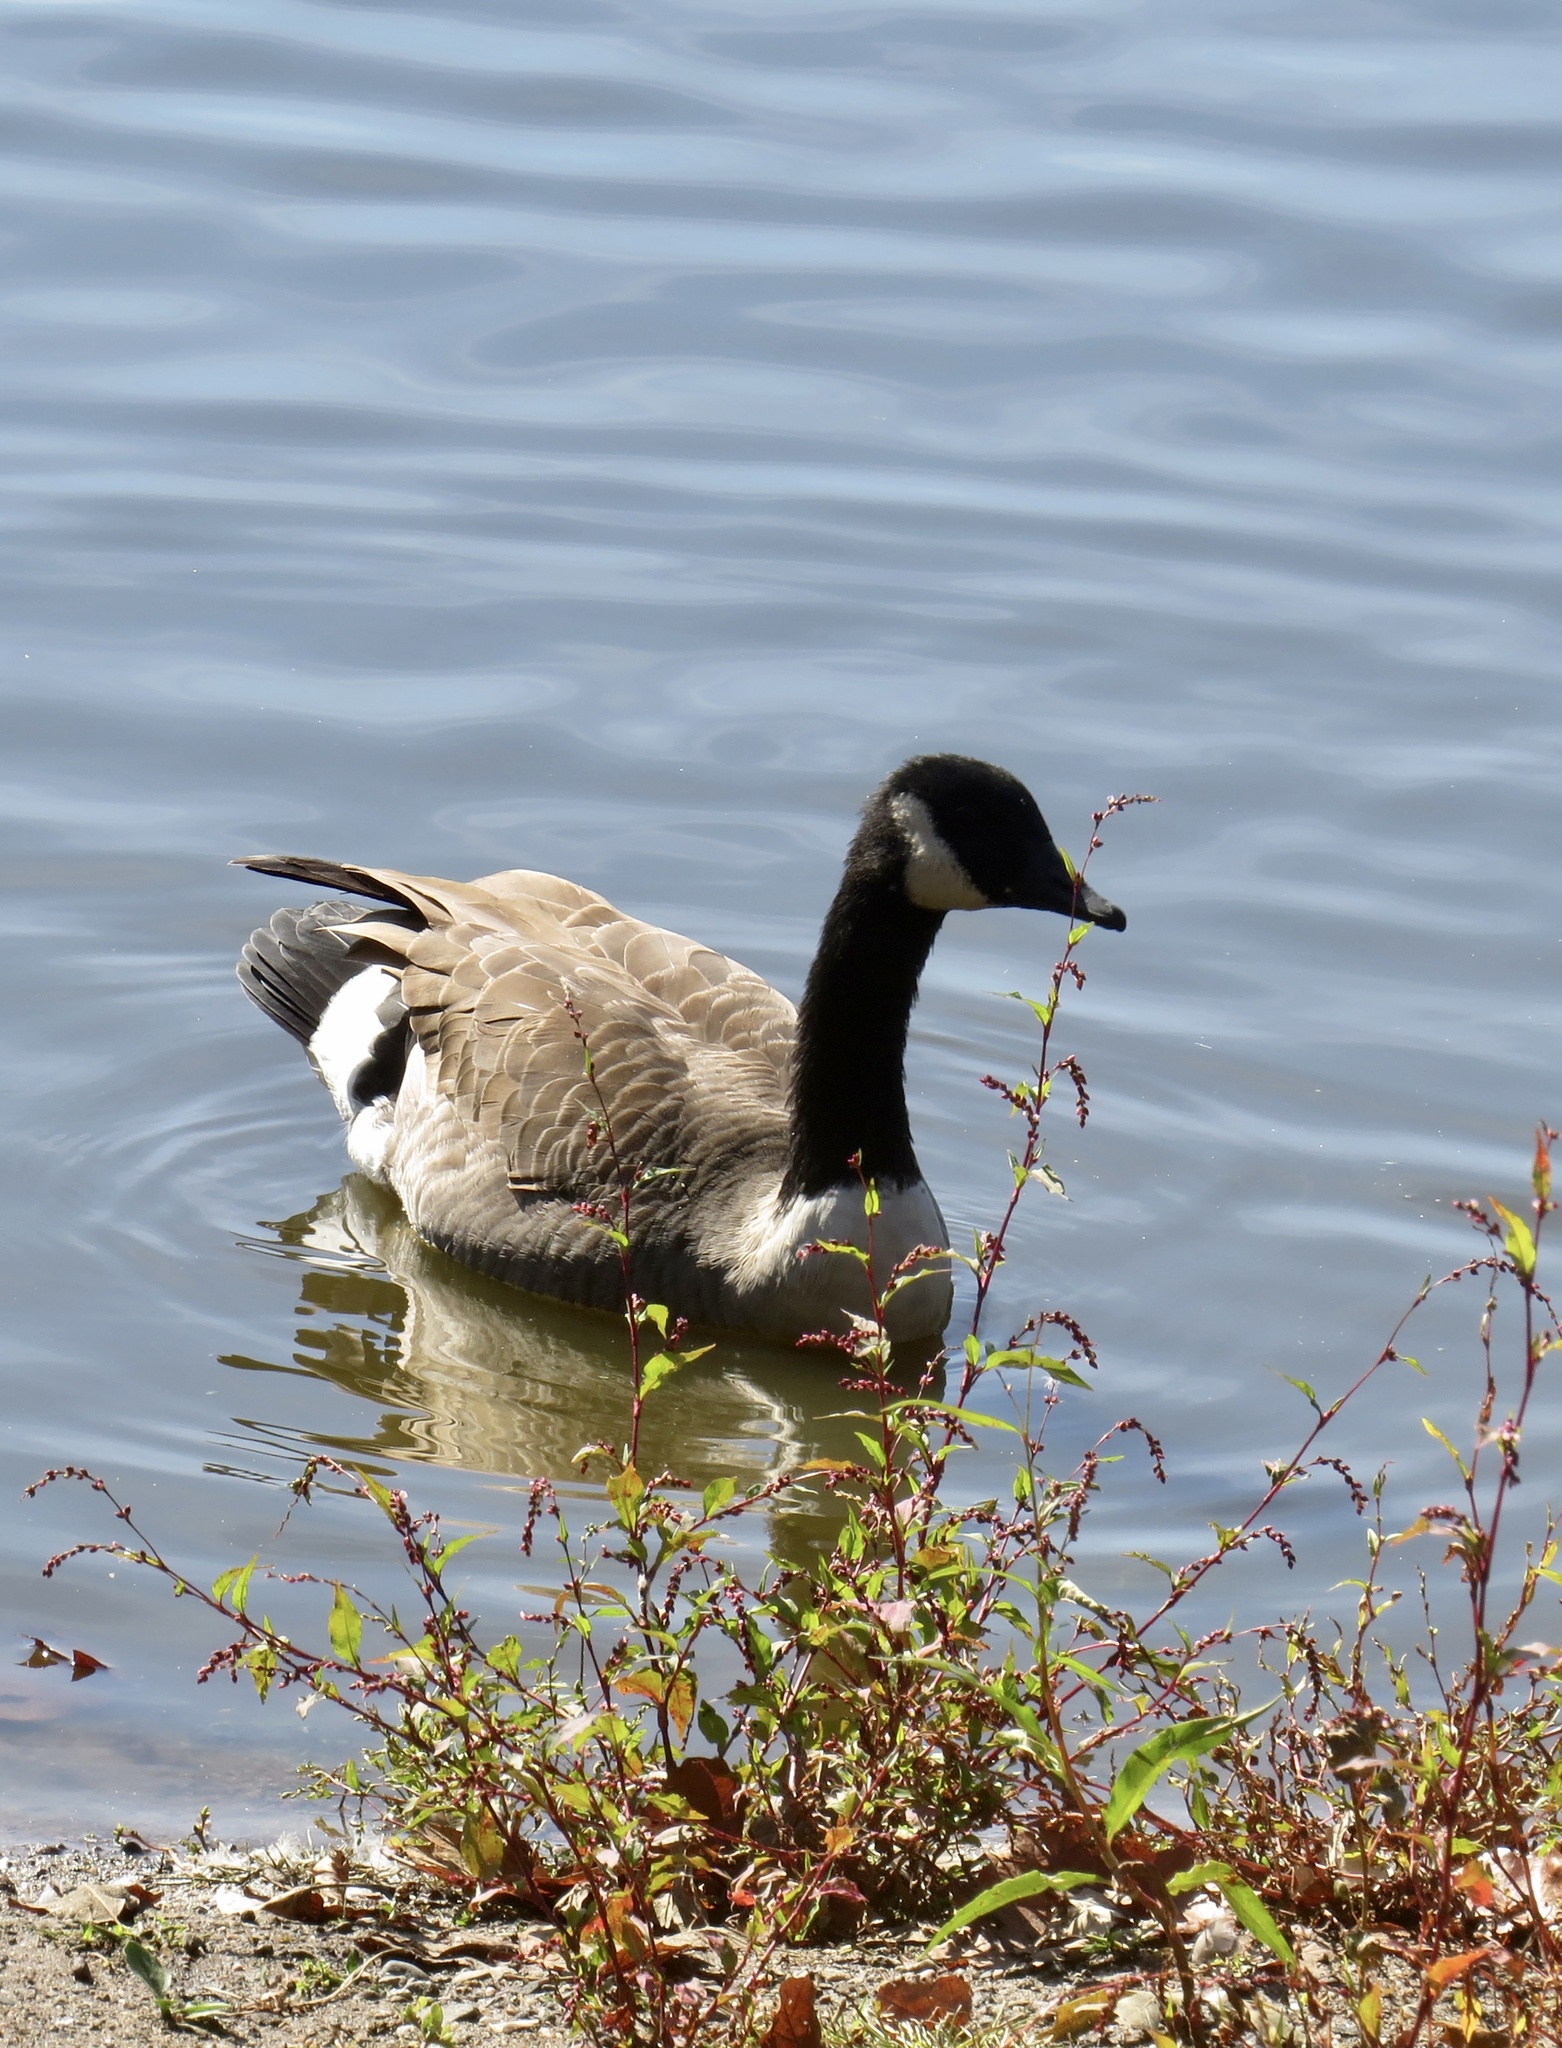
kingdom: Animalia
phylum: Chordata
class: Aves
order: Anseriformes
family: Anatidae
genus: Branta
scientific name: Branta canadensis
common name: Canada goose
